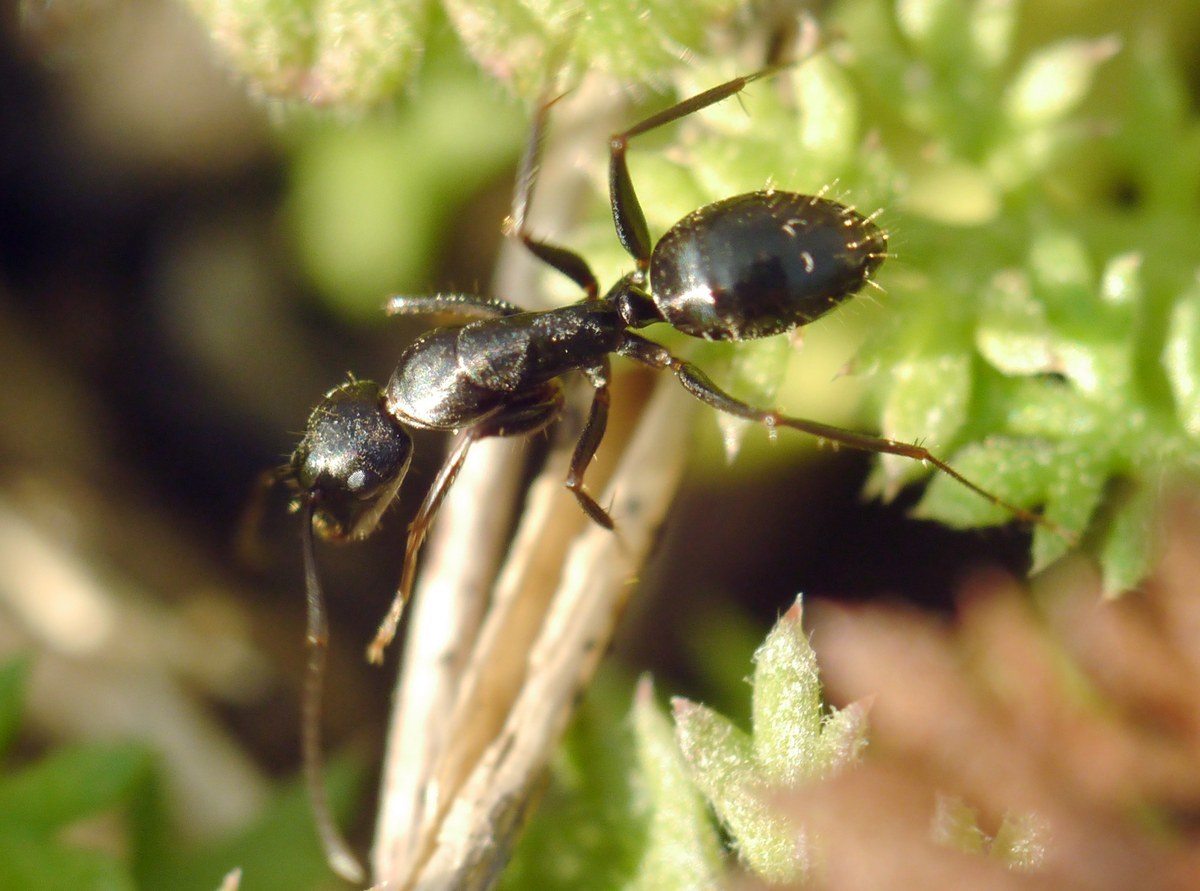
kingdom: Animalia
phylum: Arthropoda
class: Insecta
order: Hymenoptera
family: Formicidae
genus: Camponotus
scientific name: Camponotus aethiops
